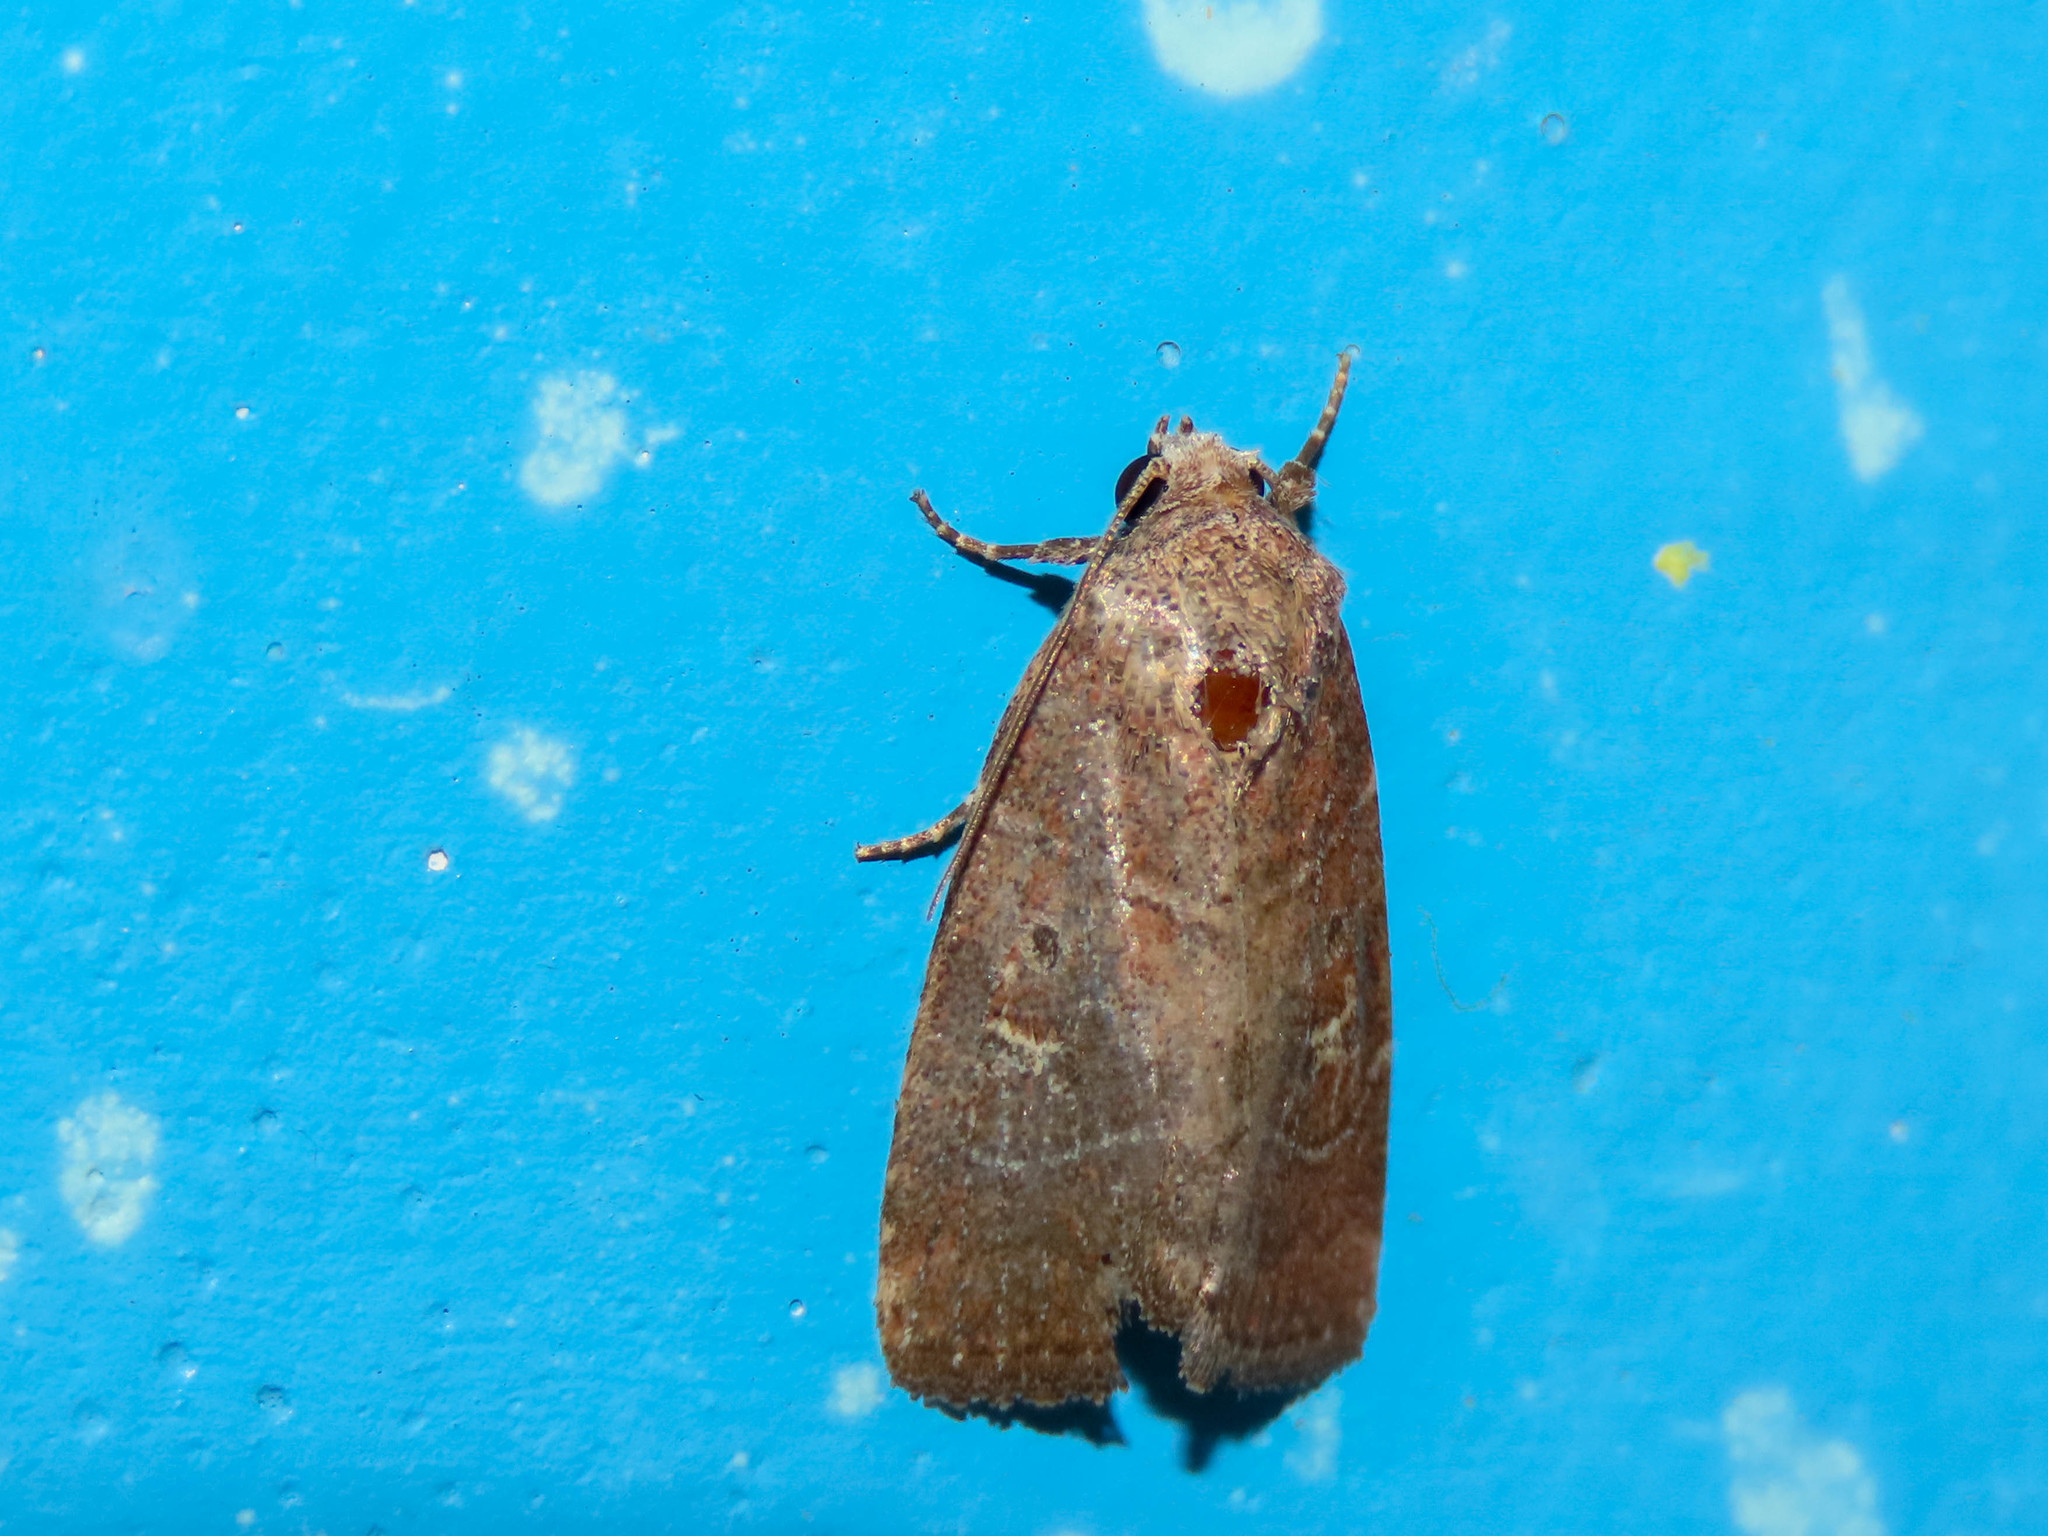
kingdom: Animalia
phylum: Arthropoda
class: Insecta
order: Lepidoptera
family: Noctuidae
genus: Elaphria
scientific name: Elaphria grata
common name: Grateful midget moth
